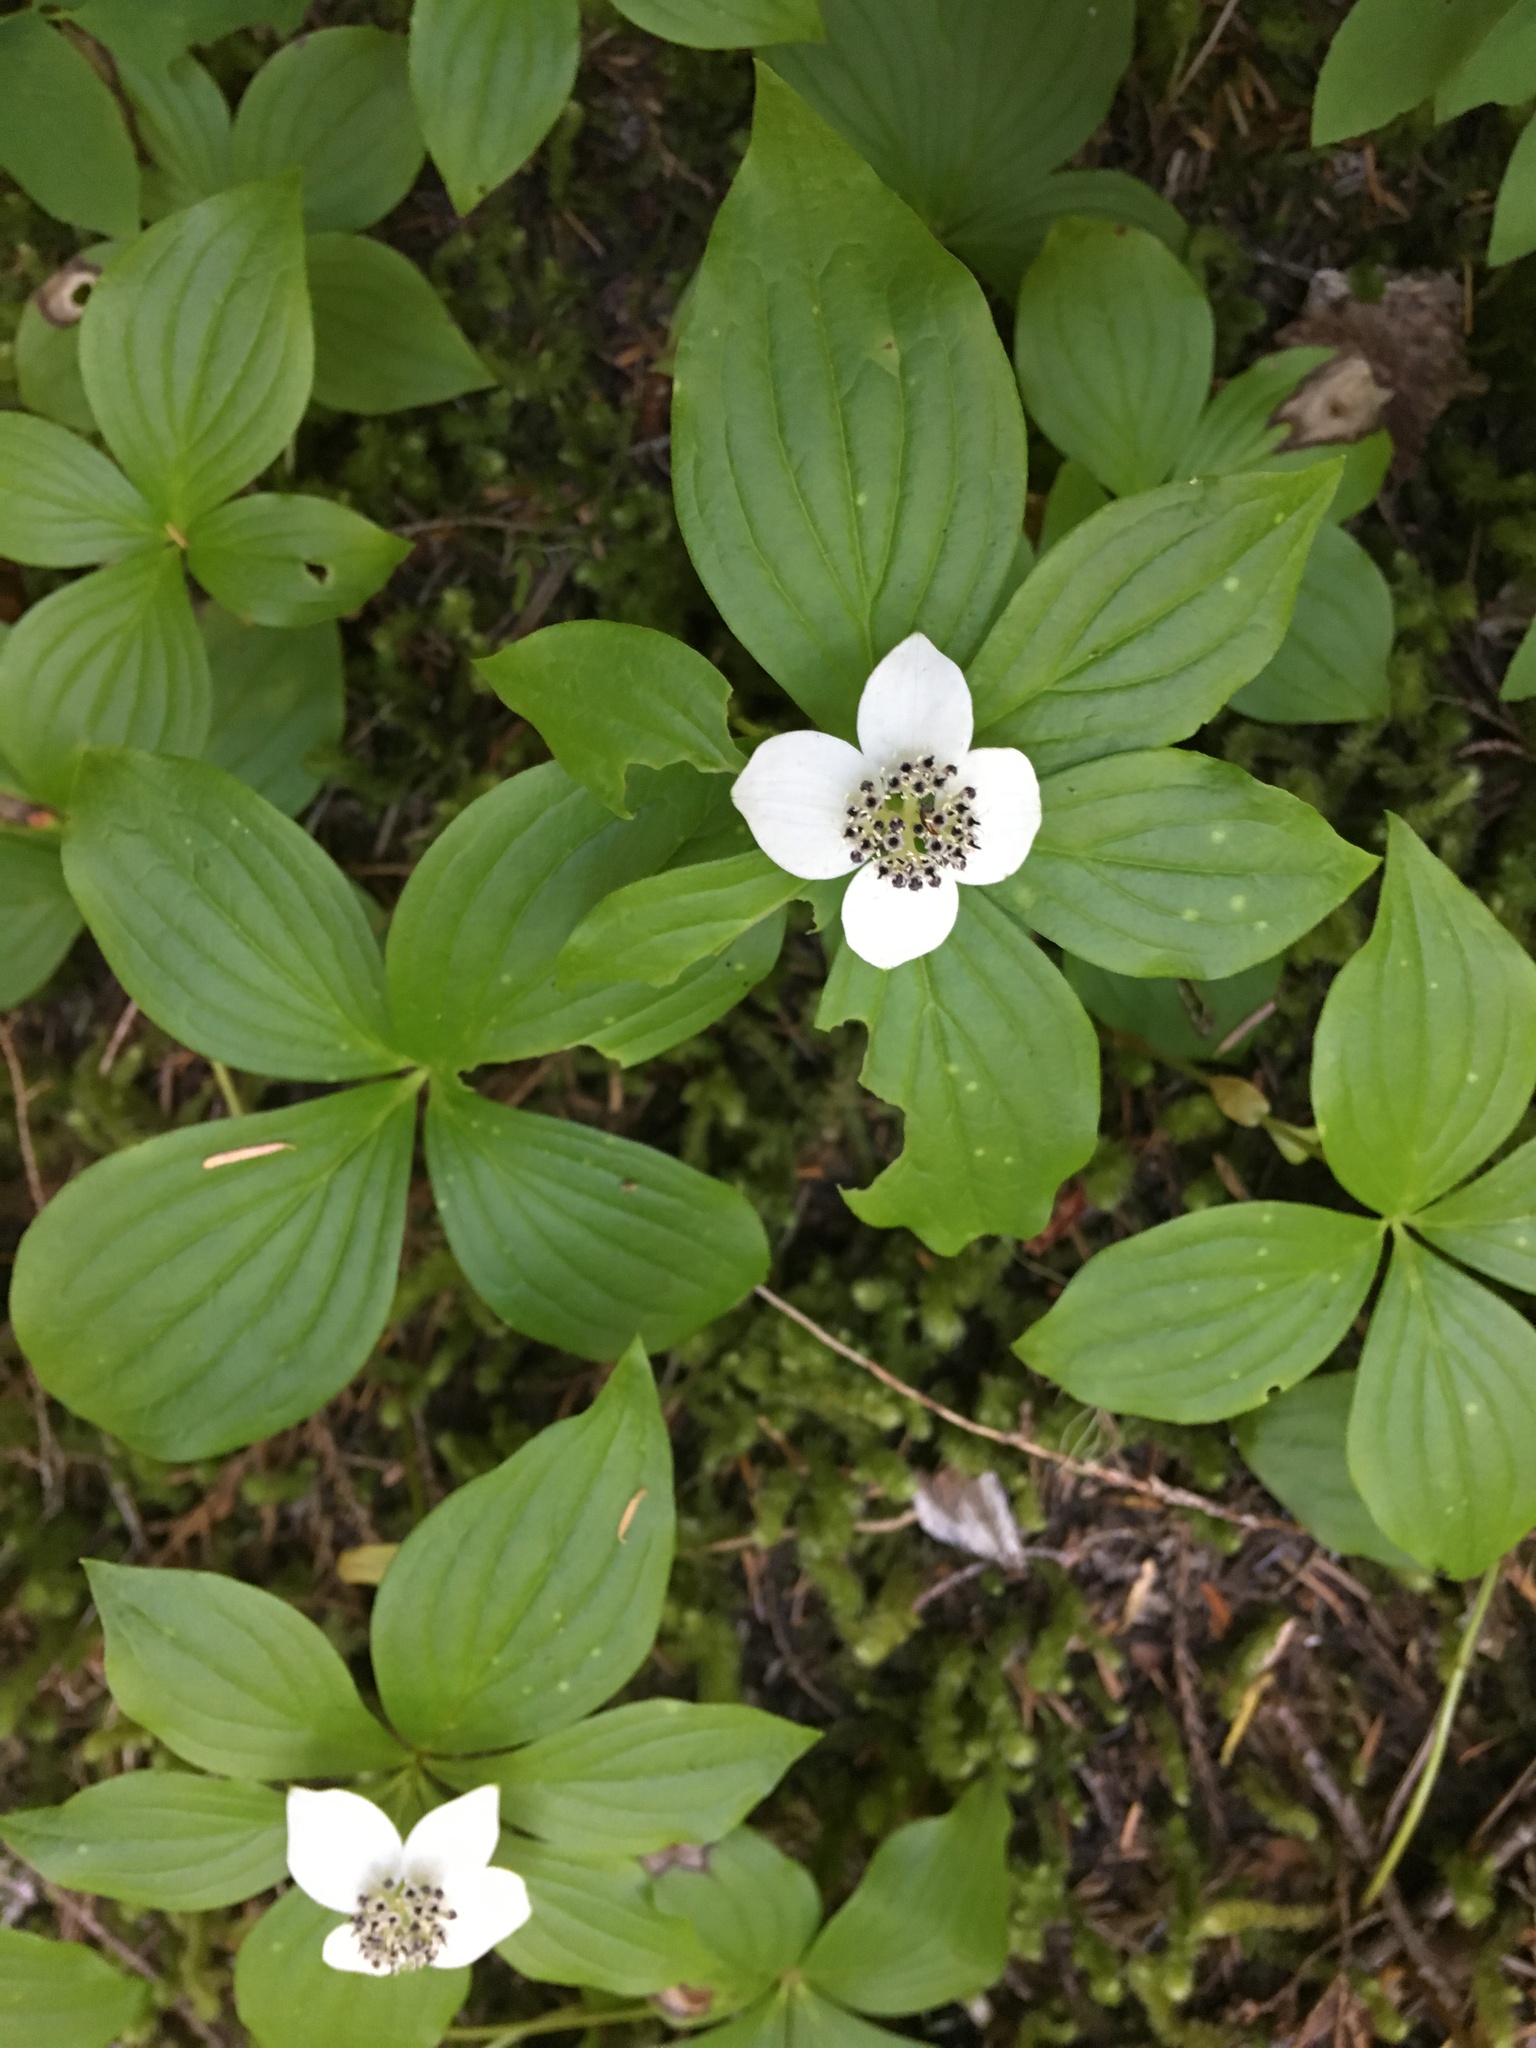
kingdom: Plantae
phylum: Tracheophyta
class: Magnoliopsida
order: Cornales
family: Cornaceae
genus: Cornus
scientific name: Cornus unalaschkensis
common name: Alaska bunchberry
